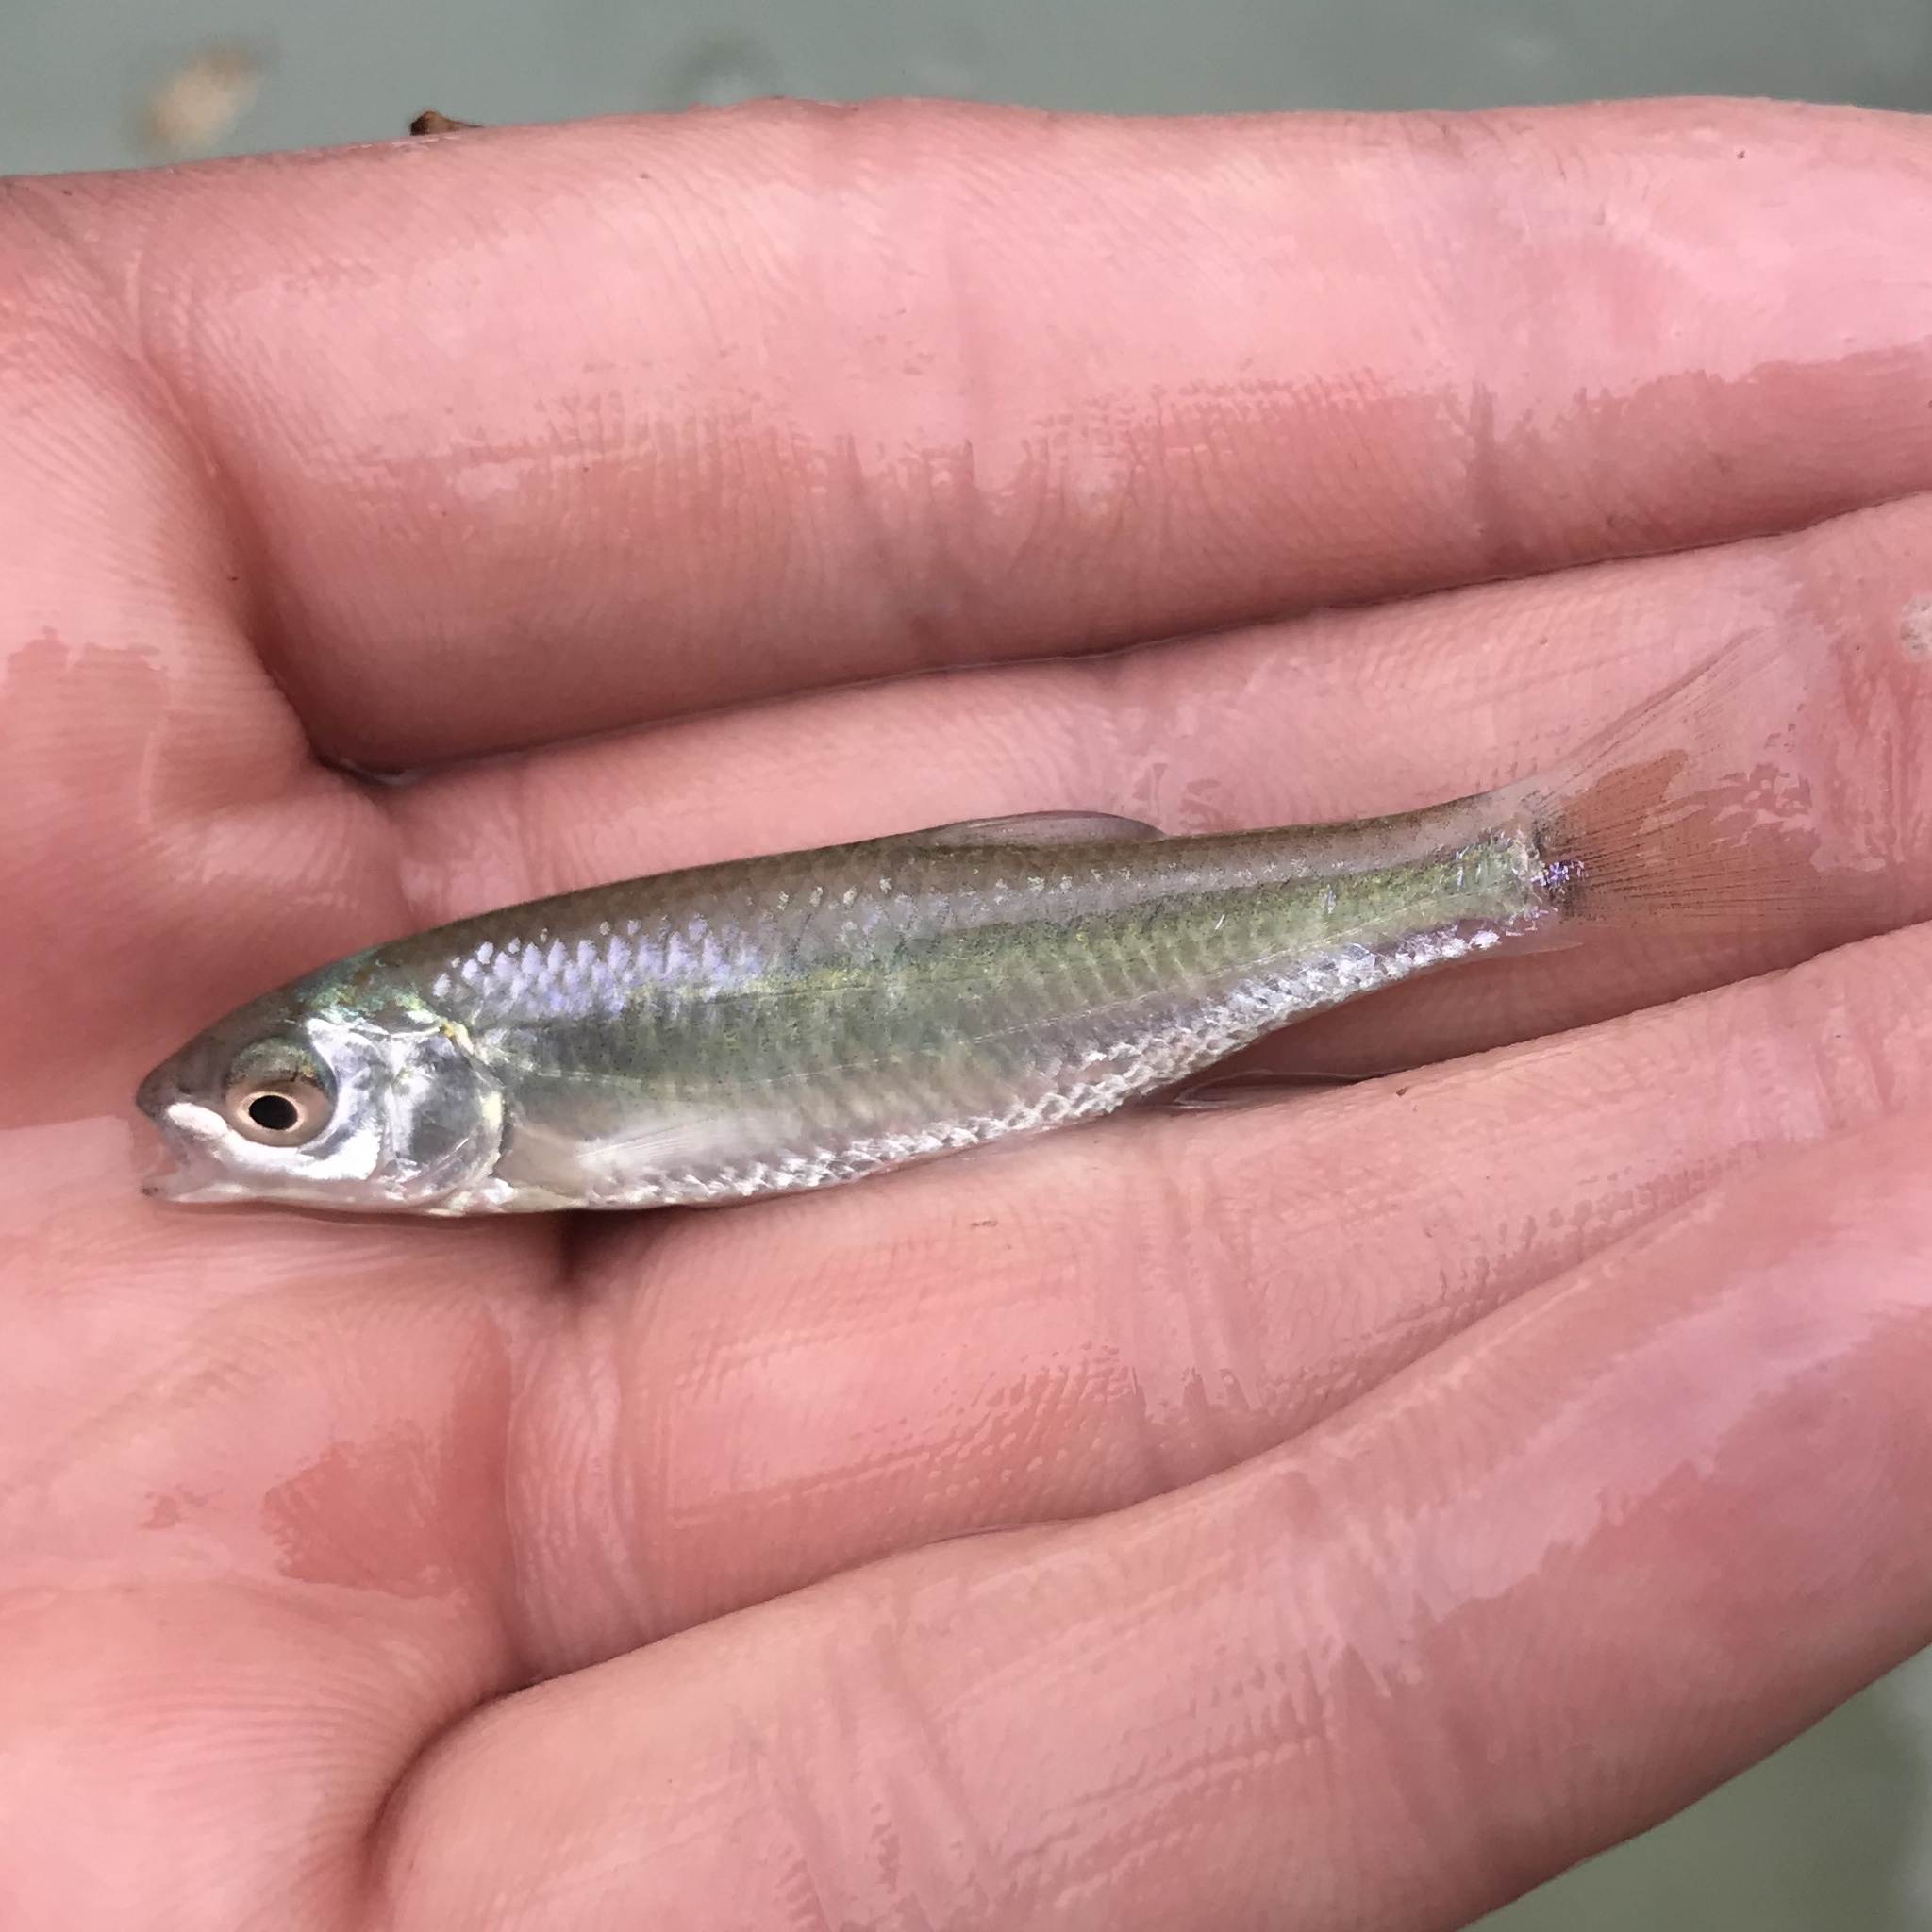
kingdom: Animalia
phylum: Chordata
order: Cypriniformes
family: Cyprinidae
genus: Cyprinella
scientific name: Cyprinella lutrensis
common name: Red shiner
